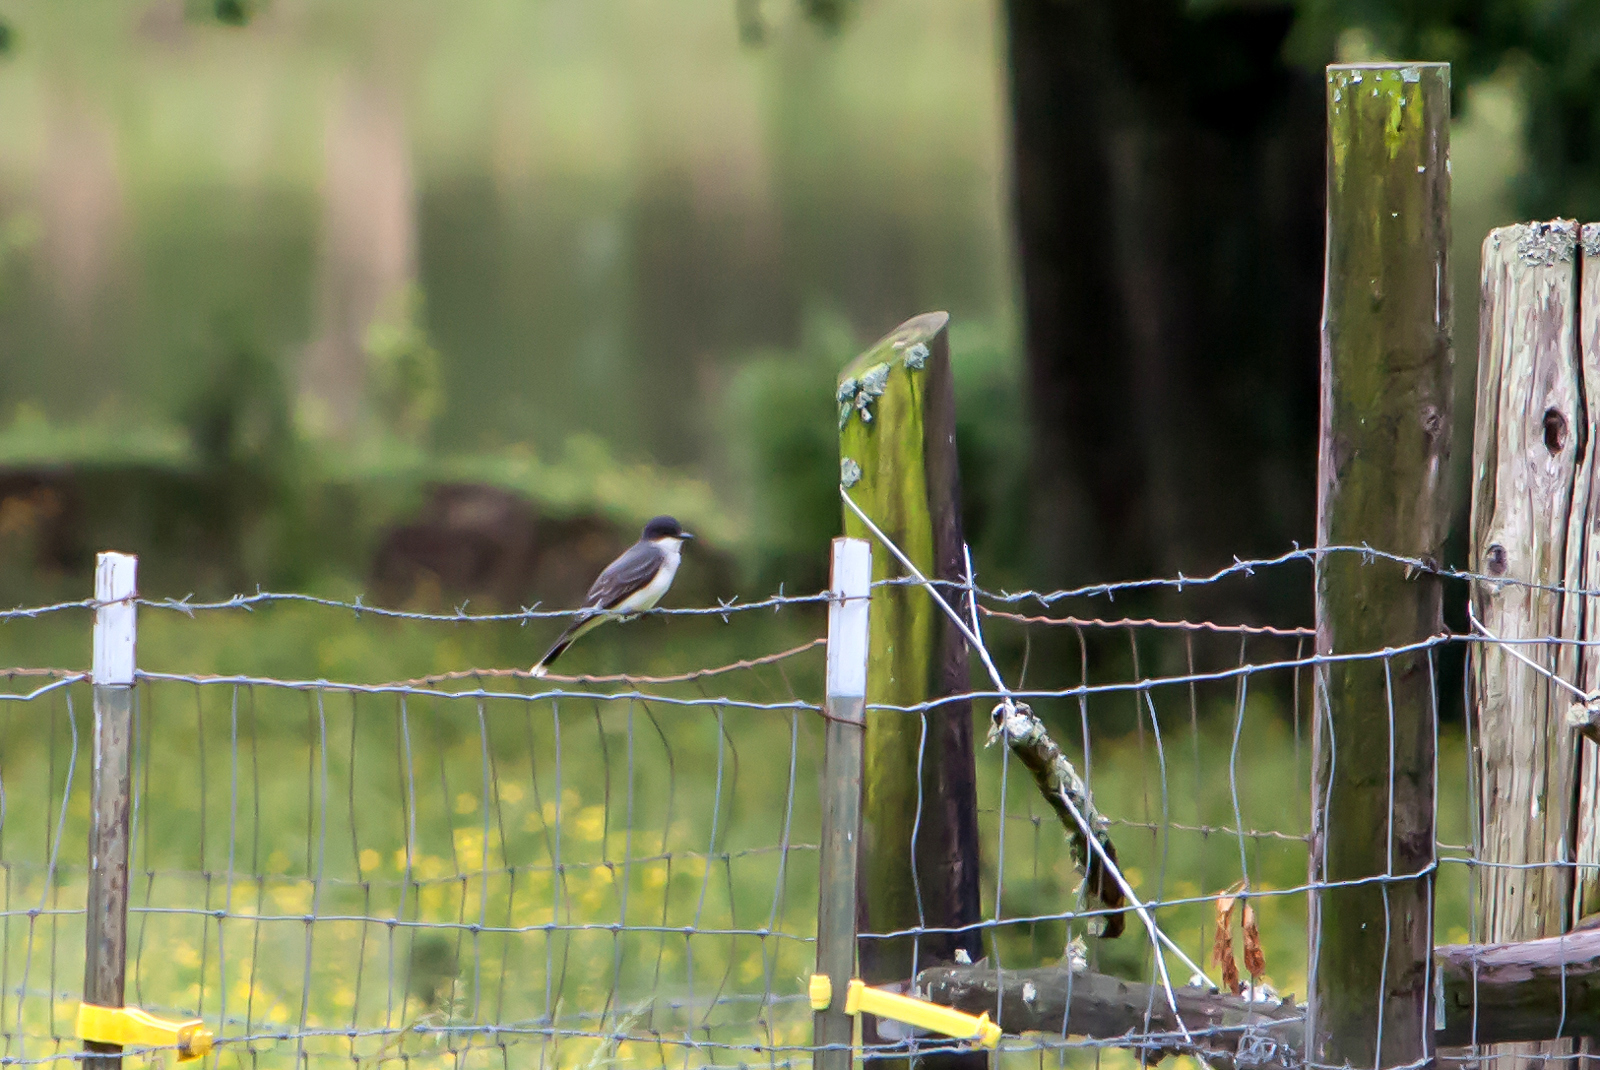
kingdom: Animalia
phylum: Chordata
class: Aves
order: Passeriformes
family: Tyrannidae
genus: Tyrannus
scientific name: Tyrannus tyrannus
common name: Eastern kingbird
